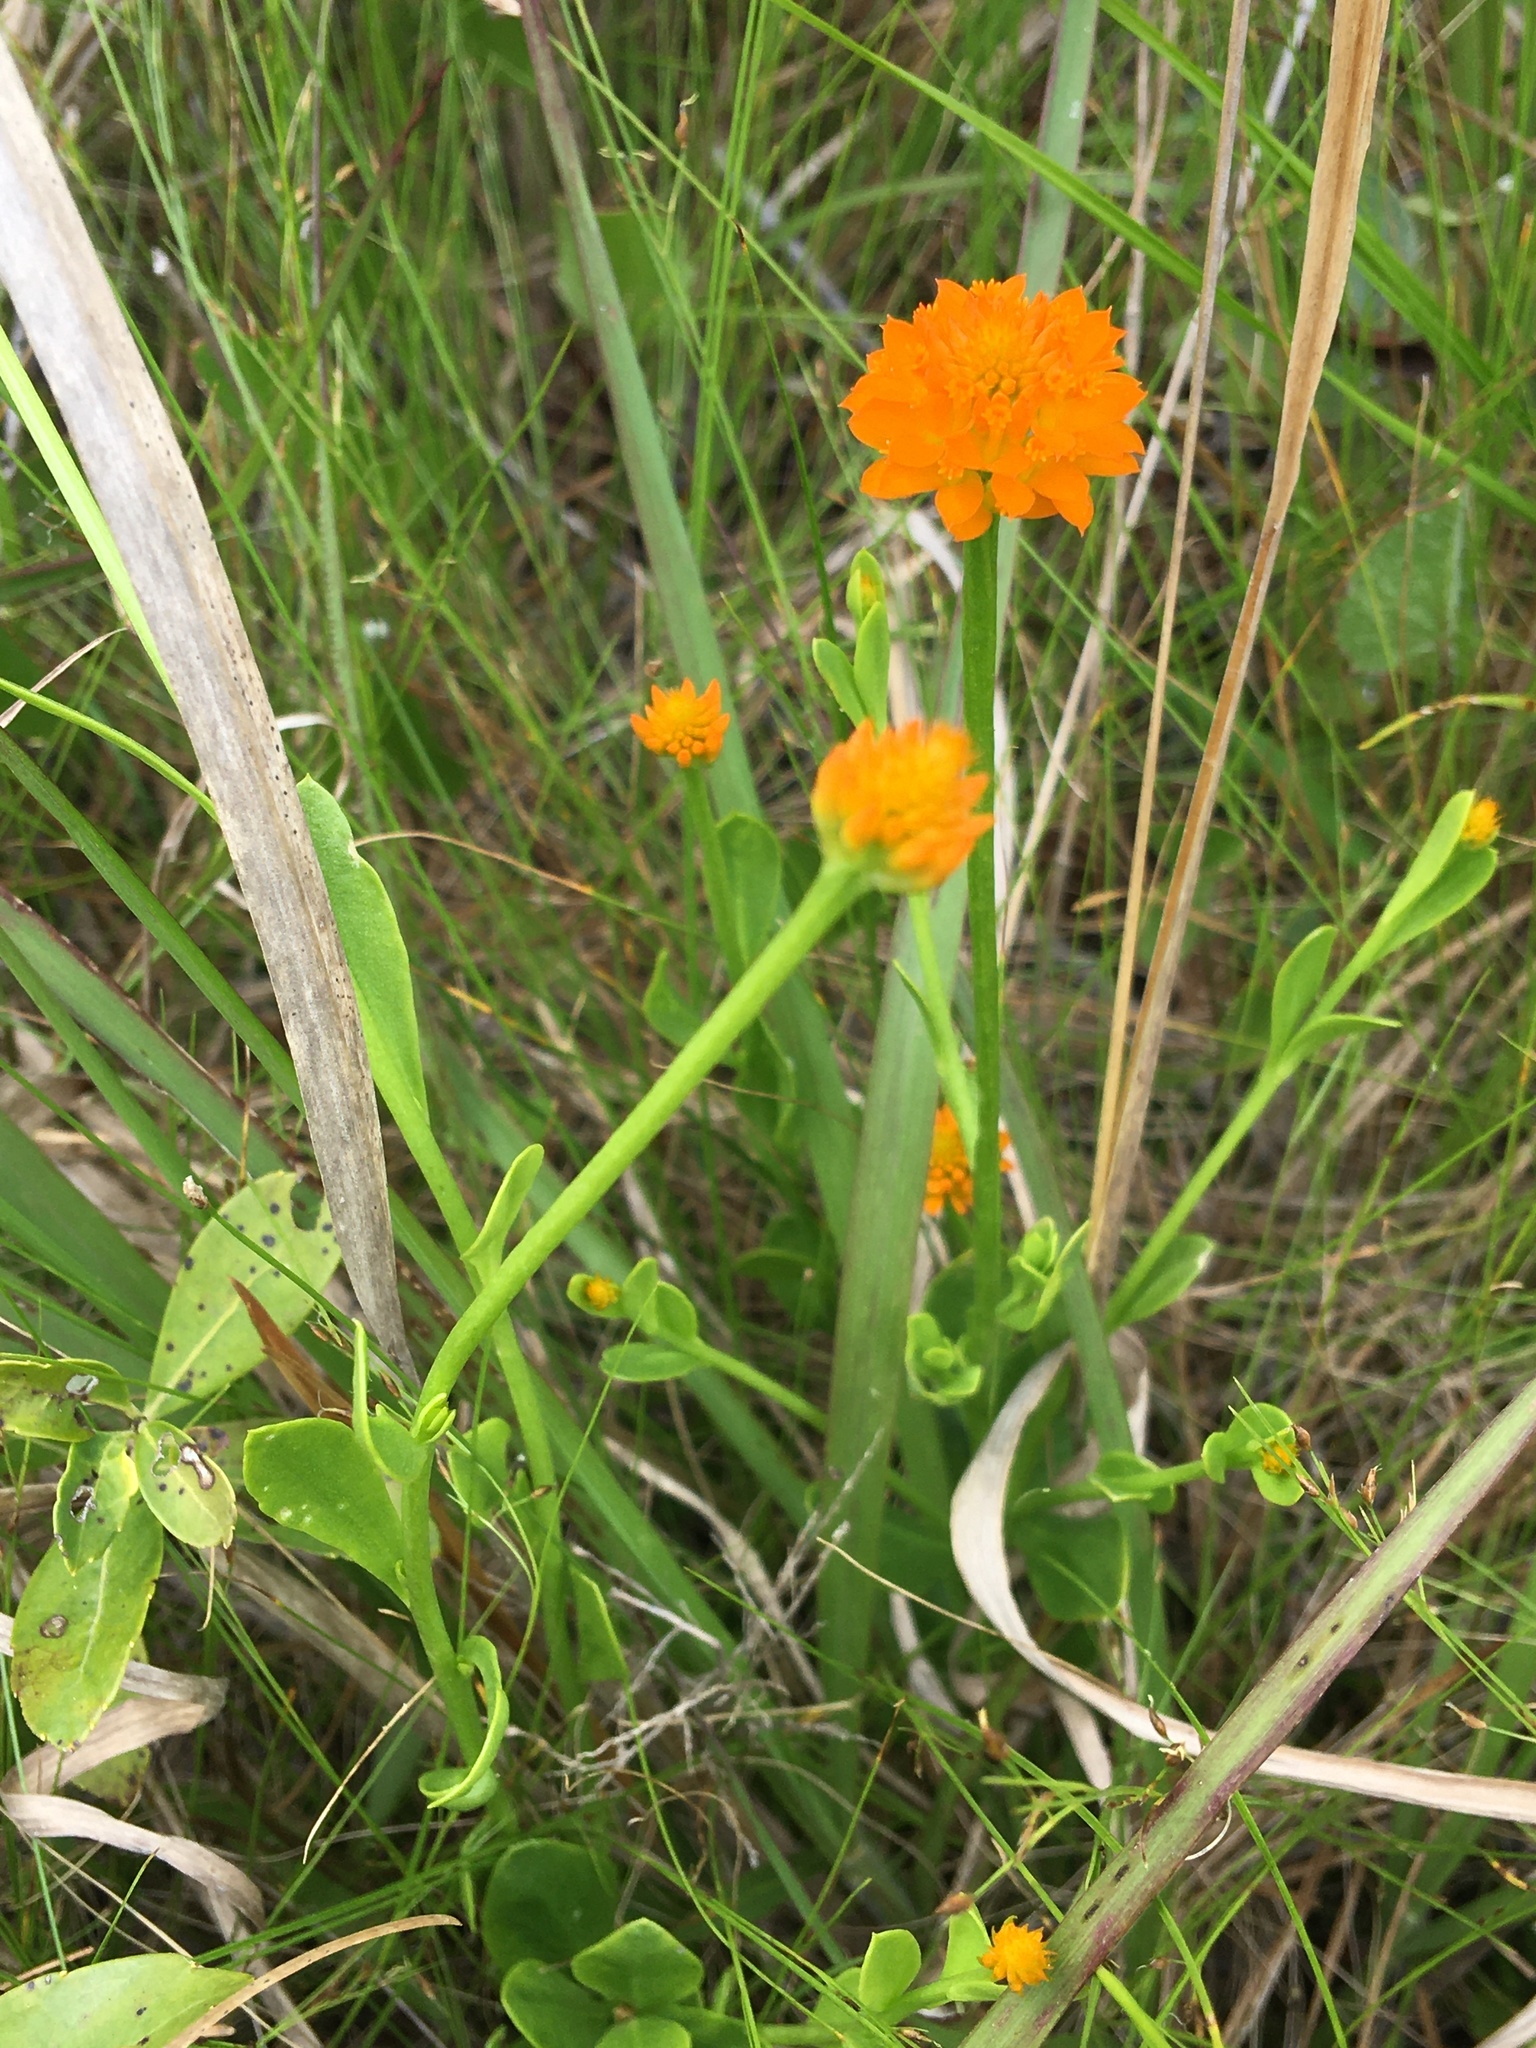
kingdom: Plantae
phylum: Tracheophyta
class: Magnoliopsida
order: Fabales
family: Polygalaceae
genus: Polygala
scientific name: Polygala lutea
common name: Orange milkwort
